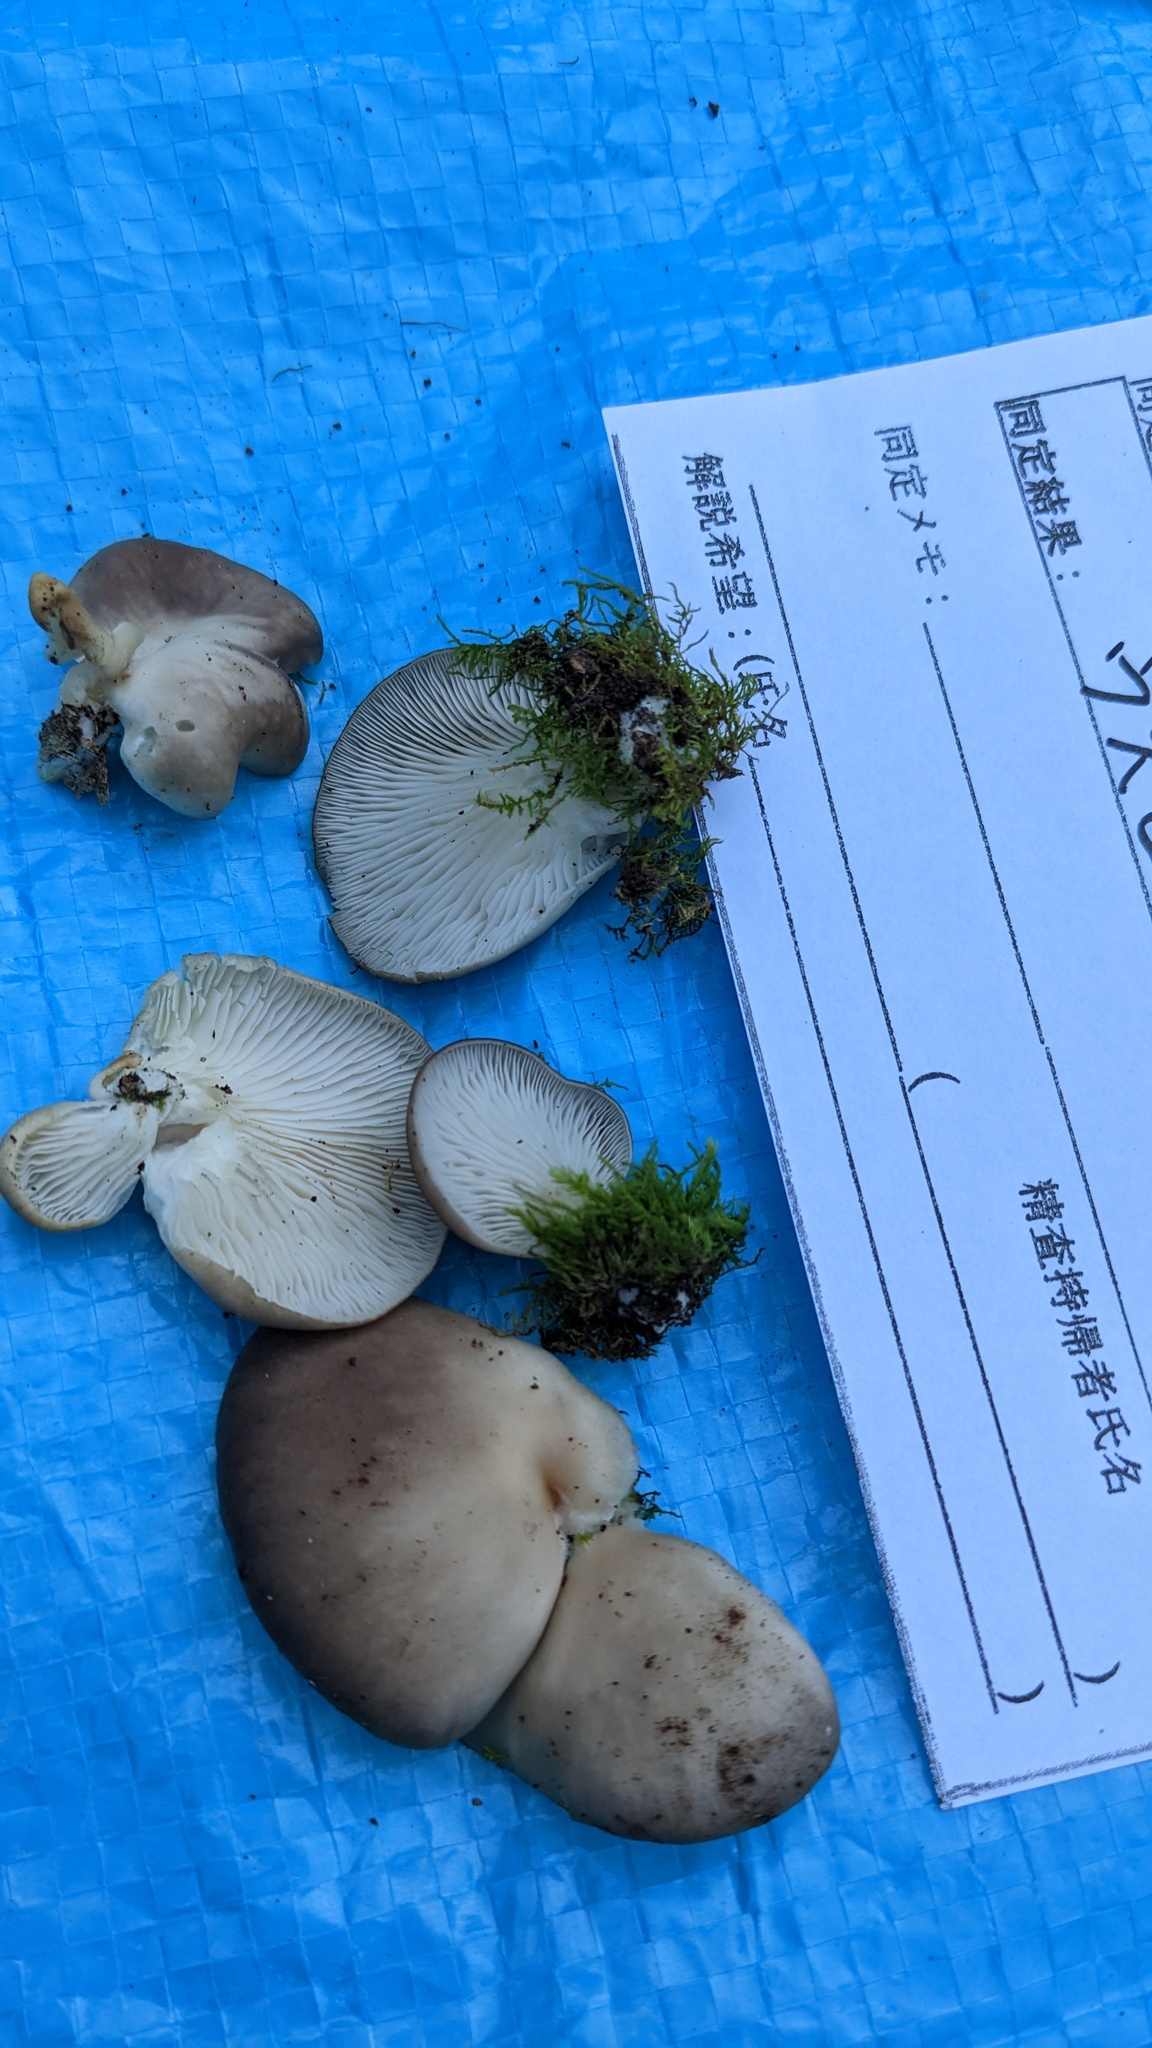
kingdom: Fungi
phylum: Basidiomycota
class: Agaricomycetes
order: Agaricales
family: Pleurotaceae
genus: Pleurotus
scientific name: Pleurotus pulmonarius
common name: Pale oyster
